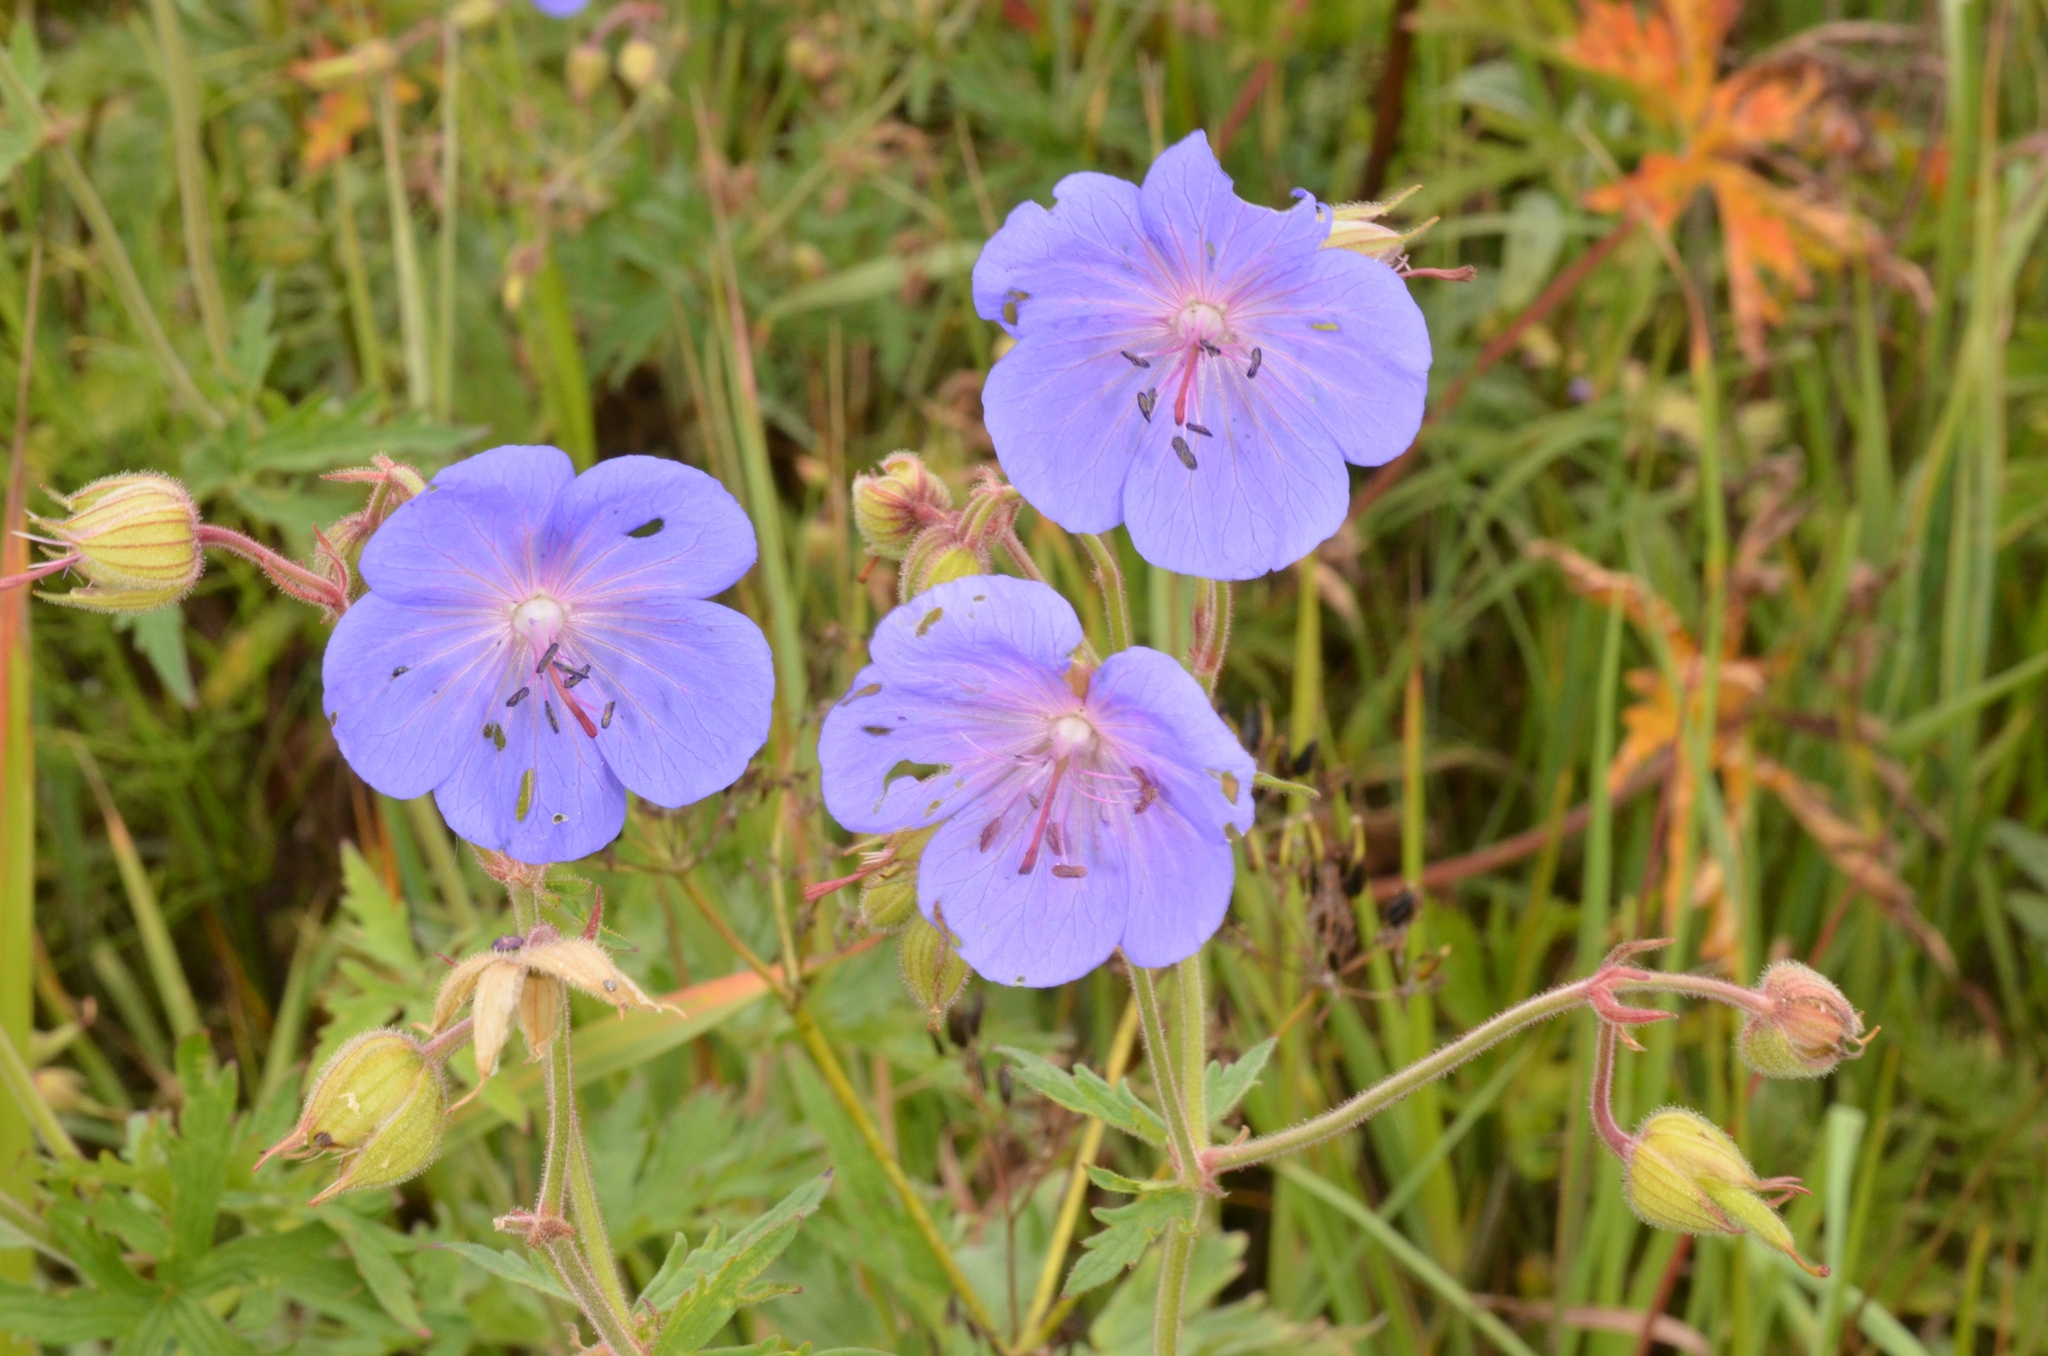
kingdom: Plantae
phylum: Tracheophyta
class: Magnoliopsida
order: Geraniales
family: Geraniaceae
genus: Geranium
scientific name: Geranium pratense
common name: Meadow crane's-bill
